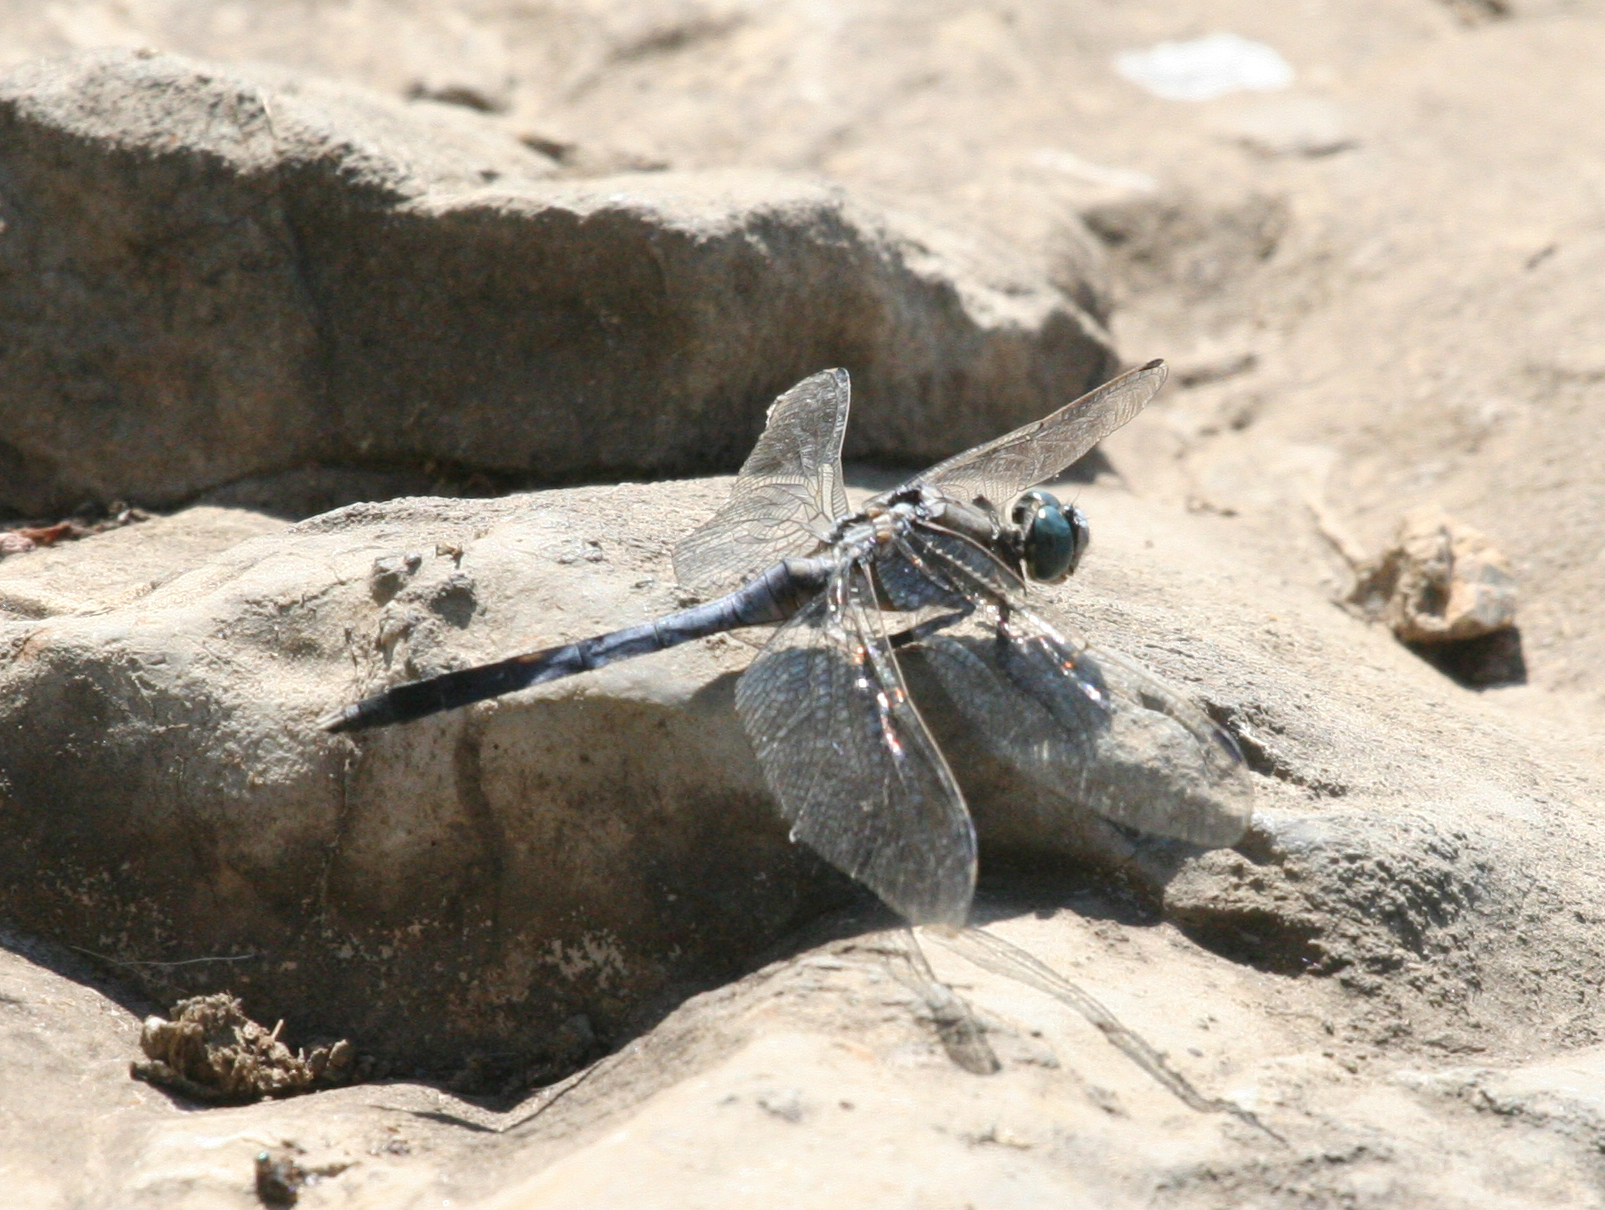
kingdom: Animalia
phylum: Arthropoda
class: Insecta
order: Odonata
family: Libellulidae
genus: Orthetrum
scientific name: Orthetrum albistylum
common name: White-tailed skimmer
